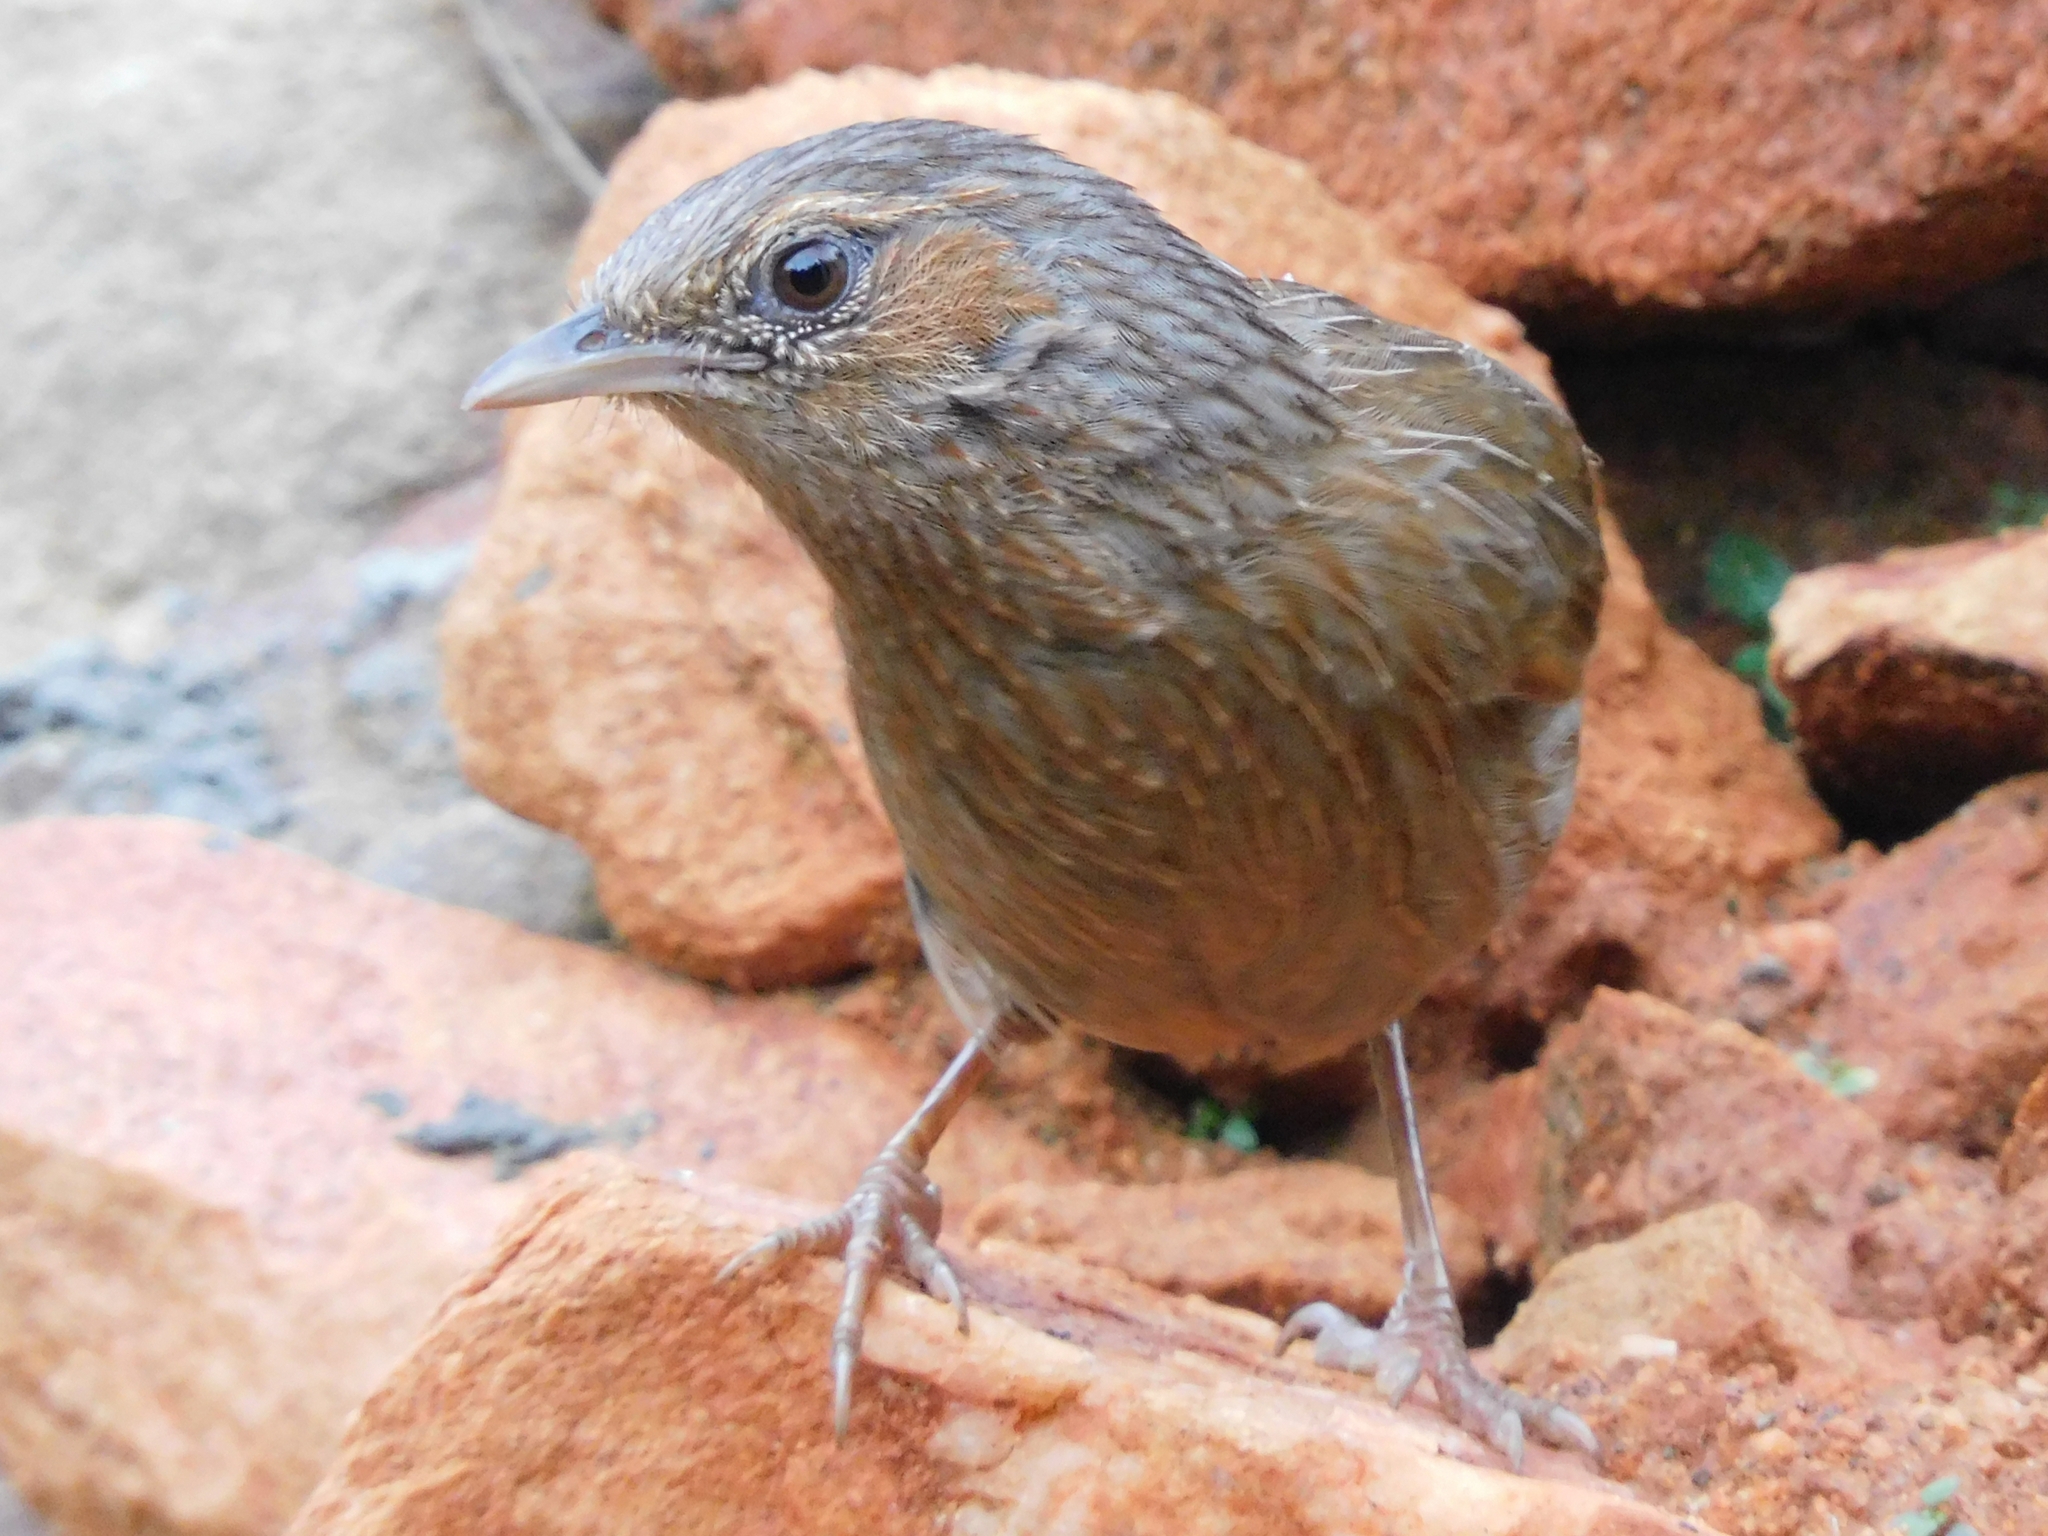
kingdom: Animalia
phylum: Chordata
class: Aves
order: Passeriformes
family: Leiothrichidae
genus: Trochalopteron
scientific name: Trochalopteron lineatum
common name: Streaked laughingthrush
